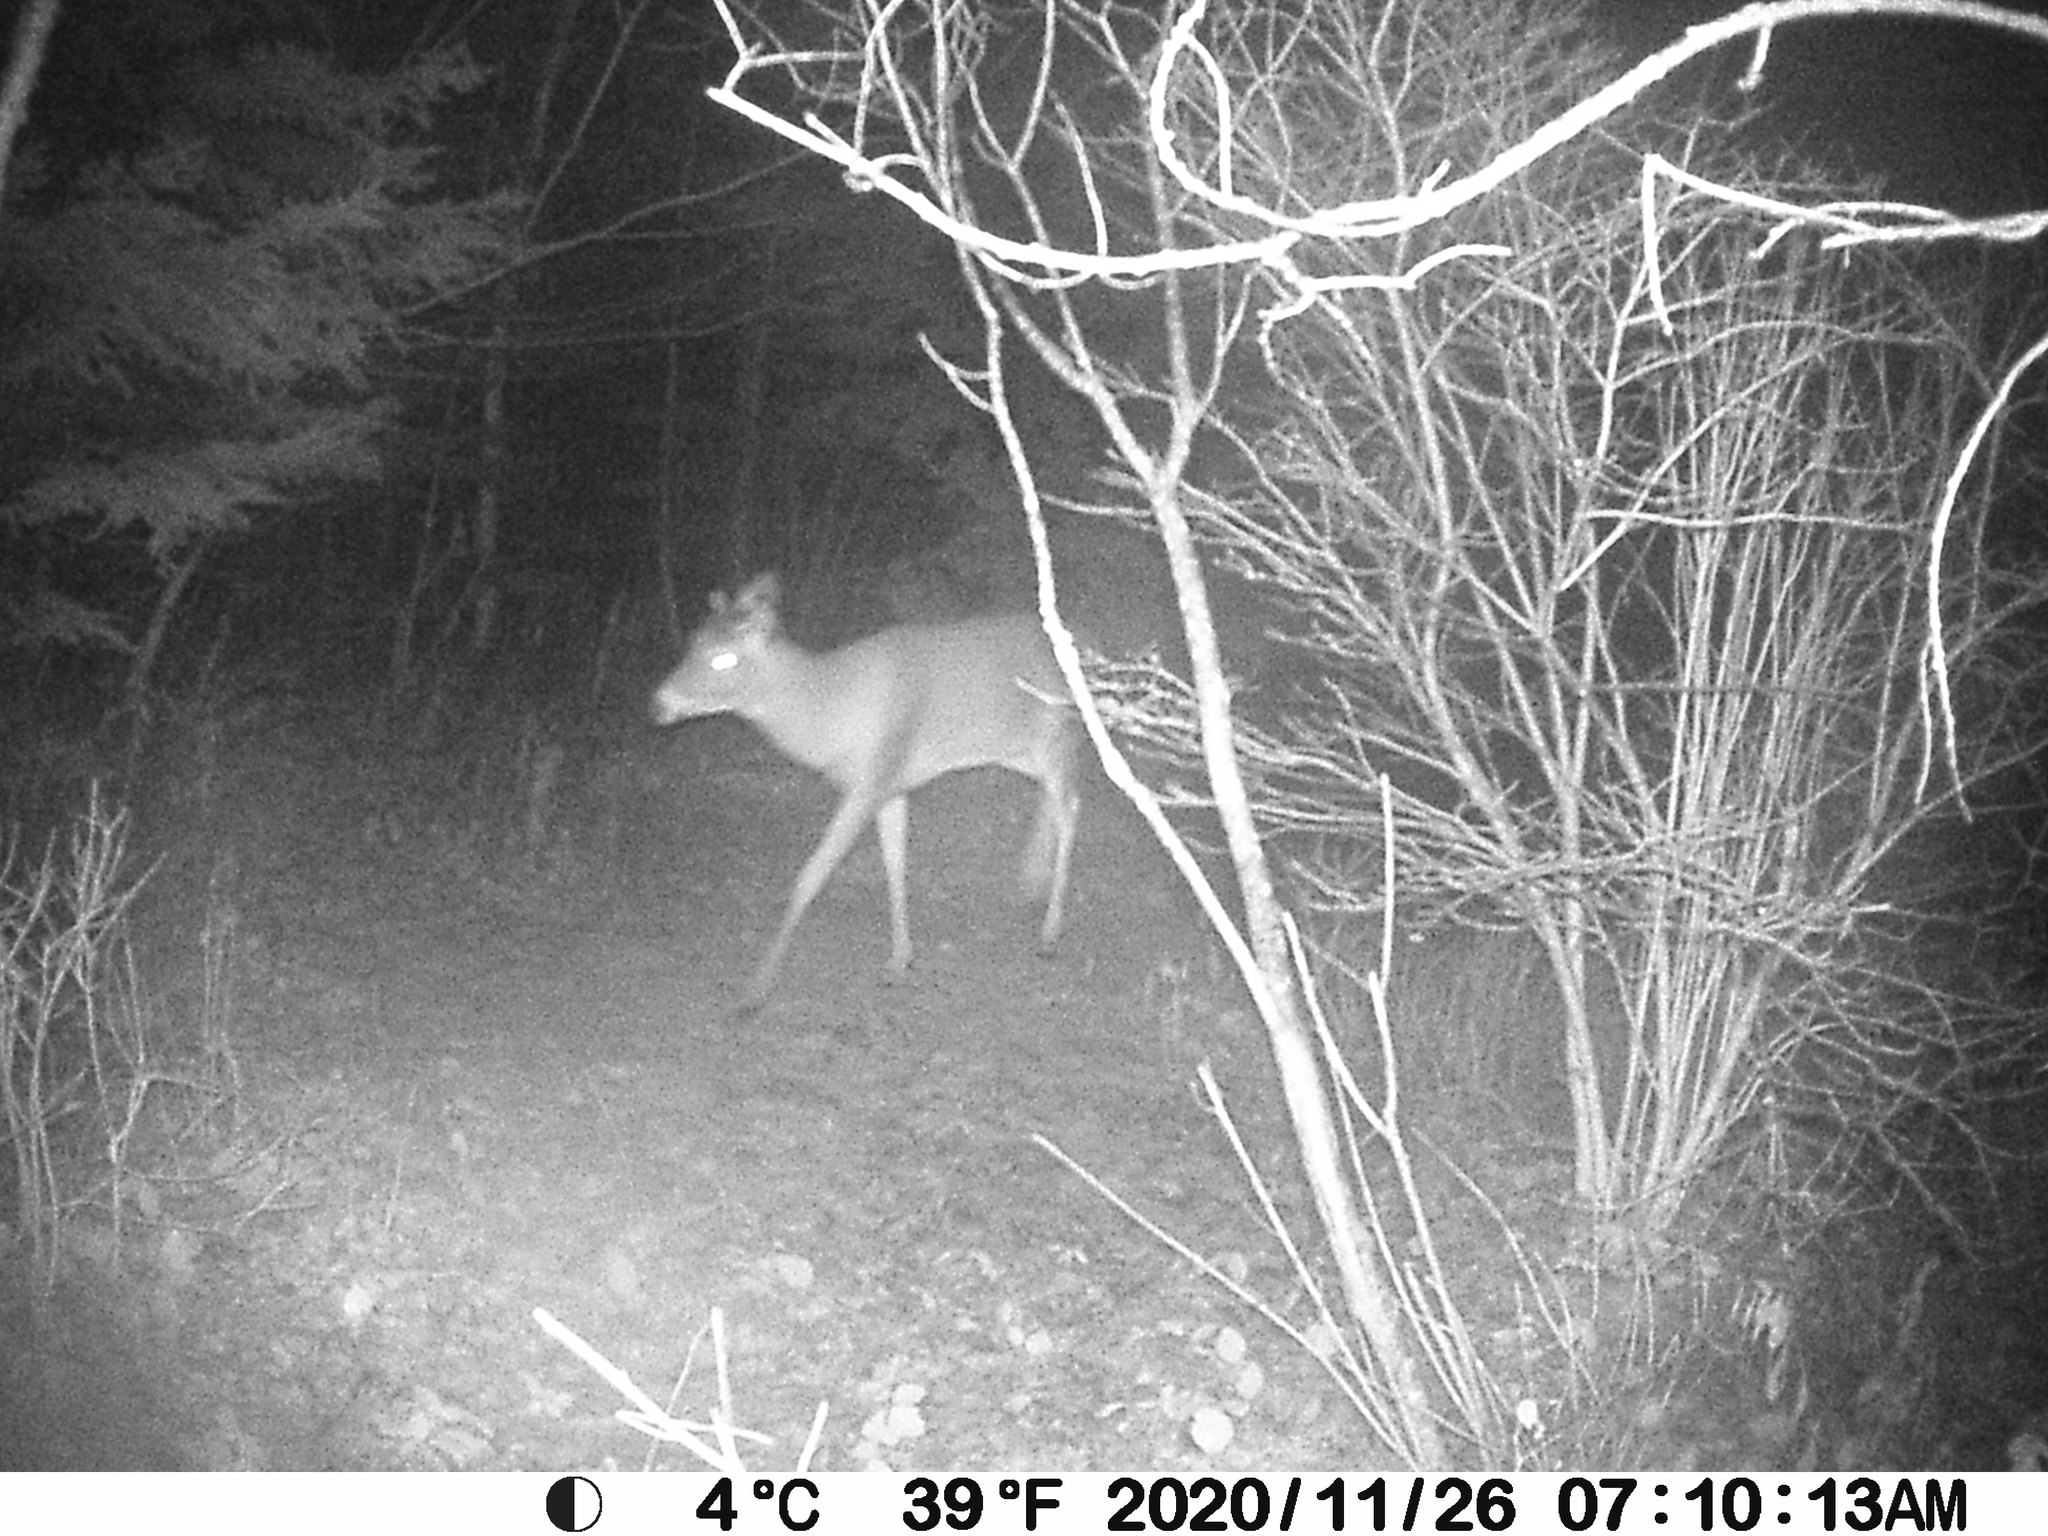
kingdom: Animalia
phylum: Chordata
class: Mammalia
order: Artiodactyla
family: Cervidae
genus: Odocoileus
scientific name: Odocoileus virginianus
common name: White-tailed deer
